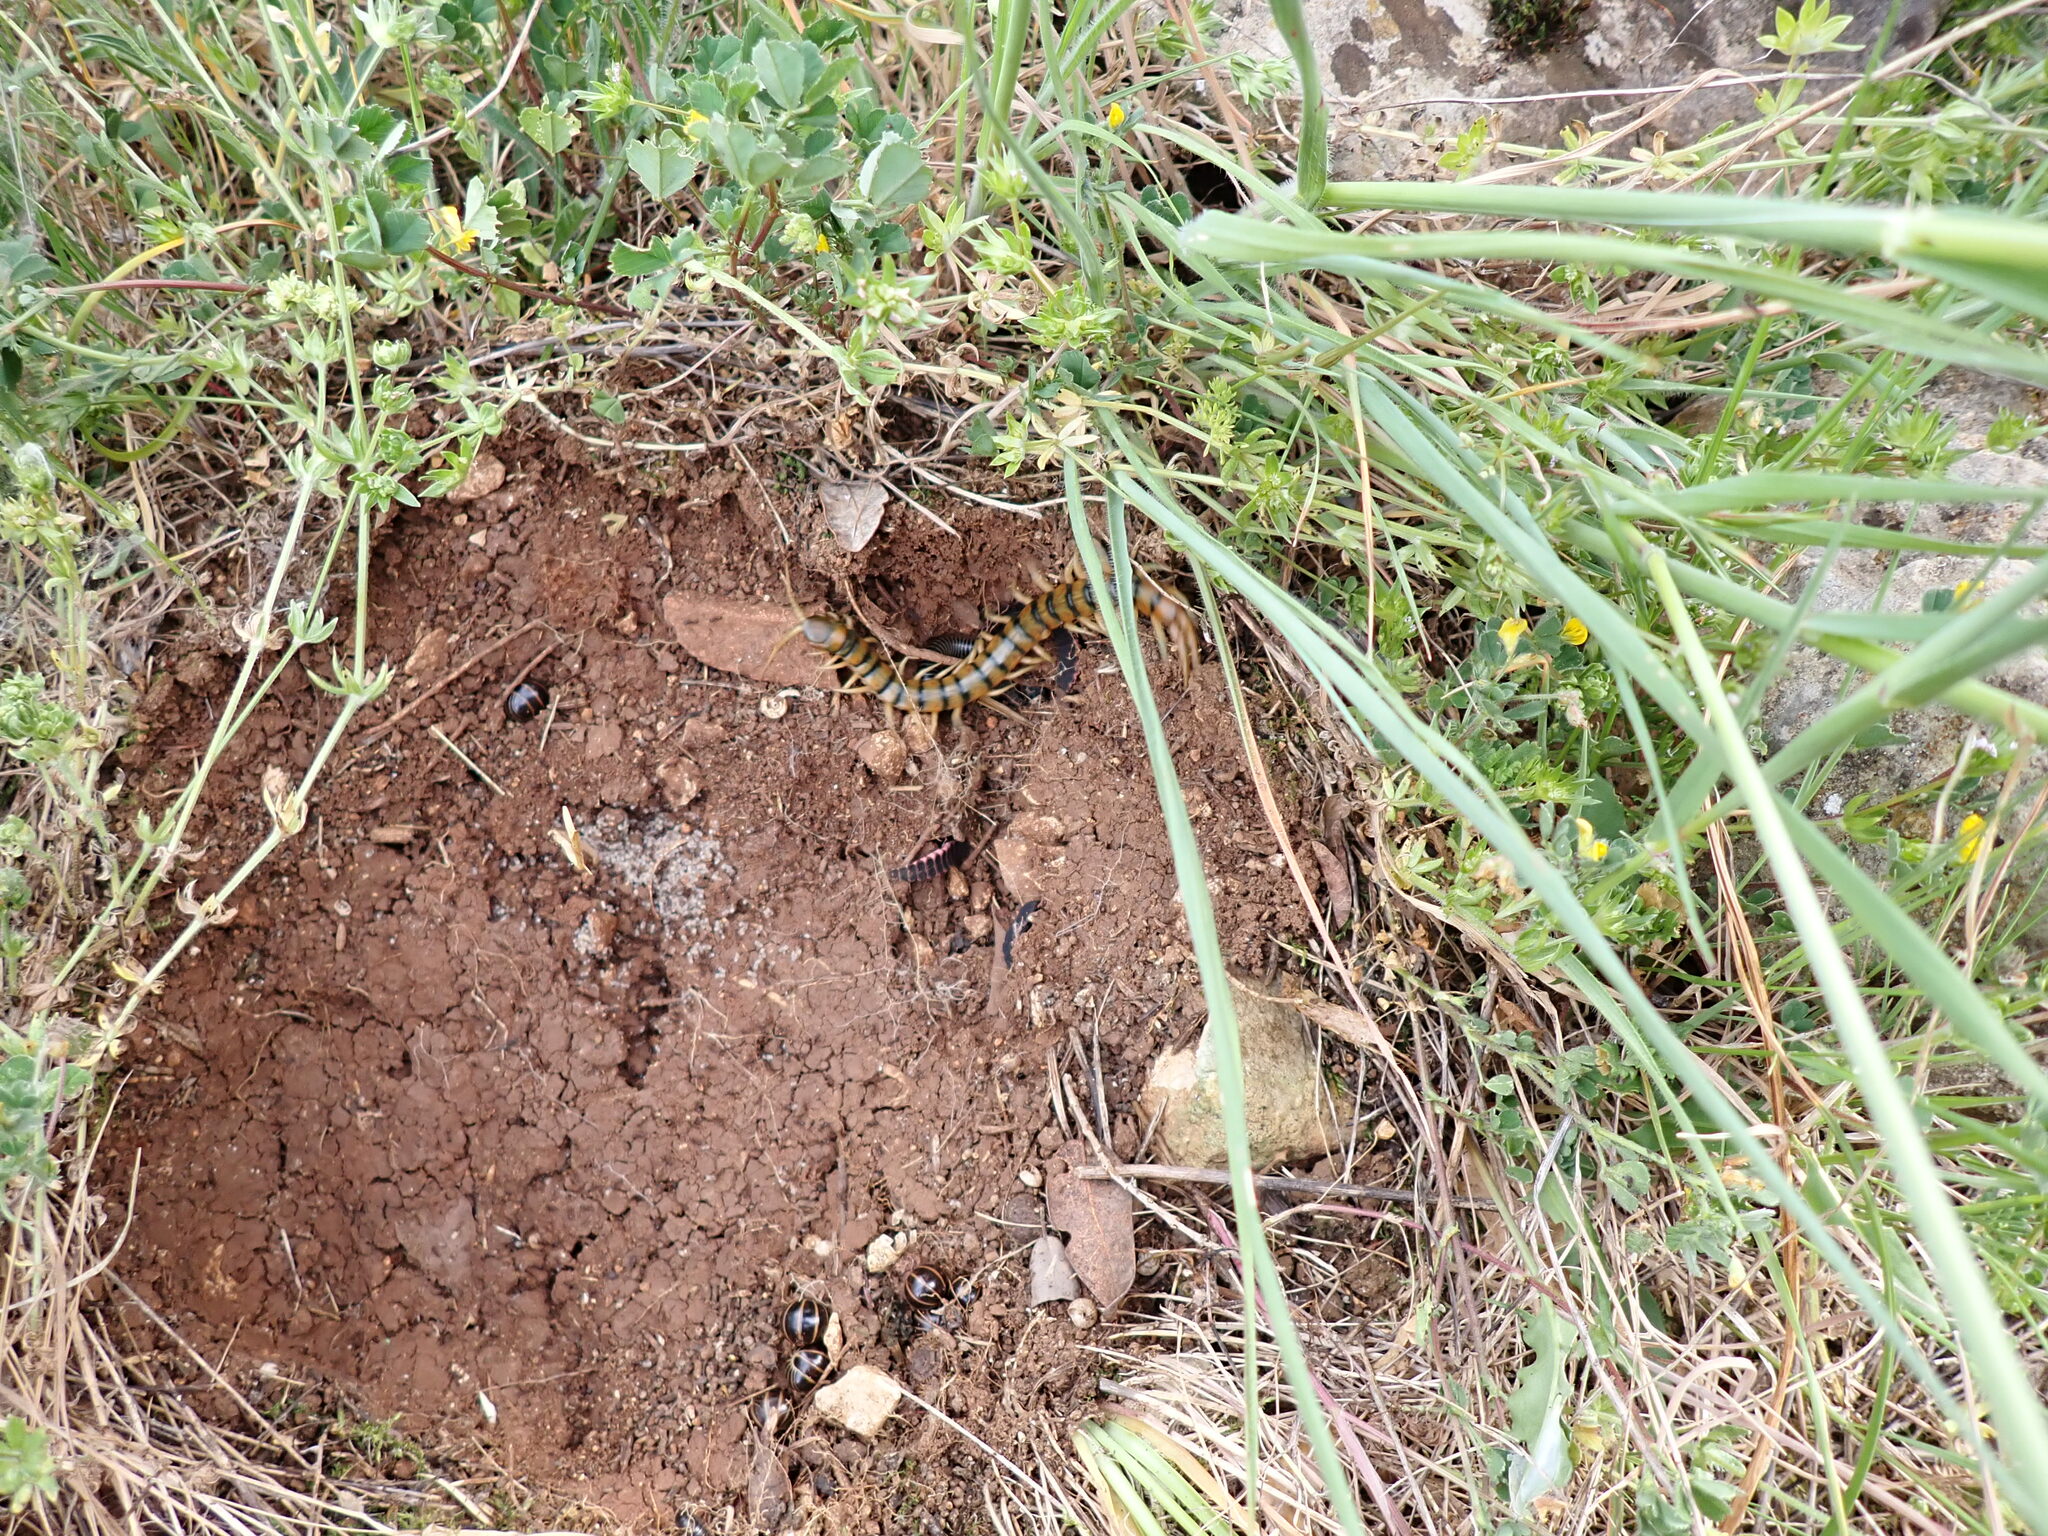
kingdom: Animalia
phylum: Arthropoda
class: Chilopoda
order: Scolopendromorpha
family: Scolopendridae
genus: Scolopendra
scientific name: Scolopendra cingulata
